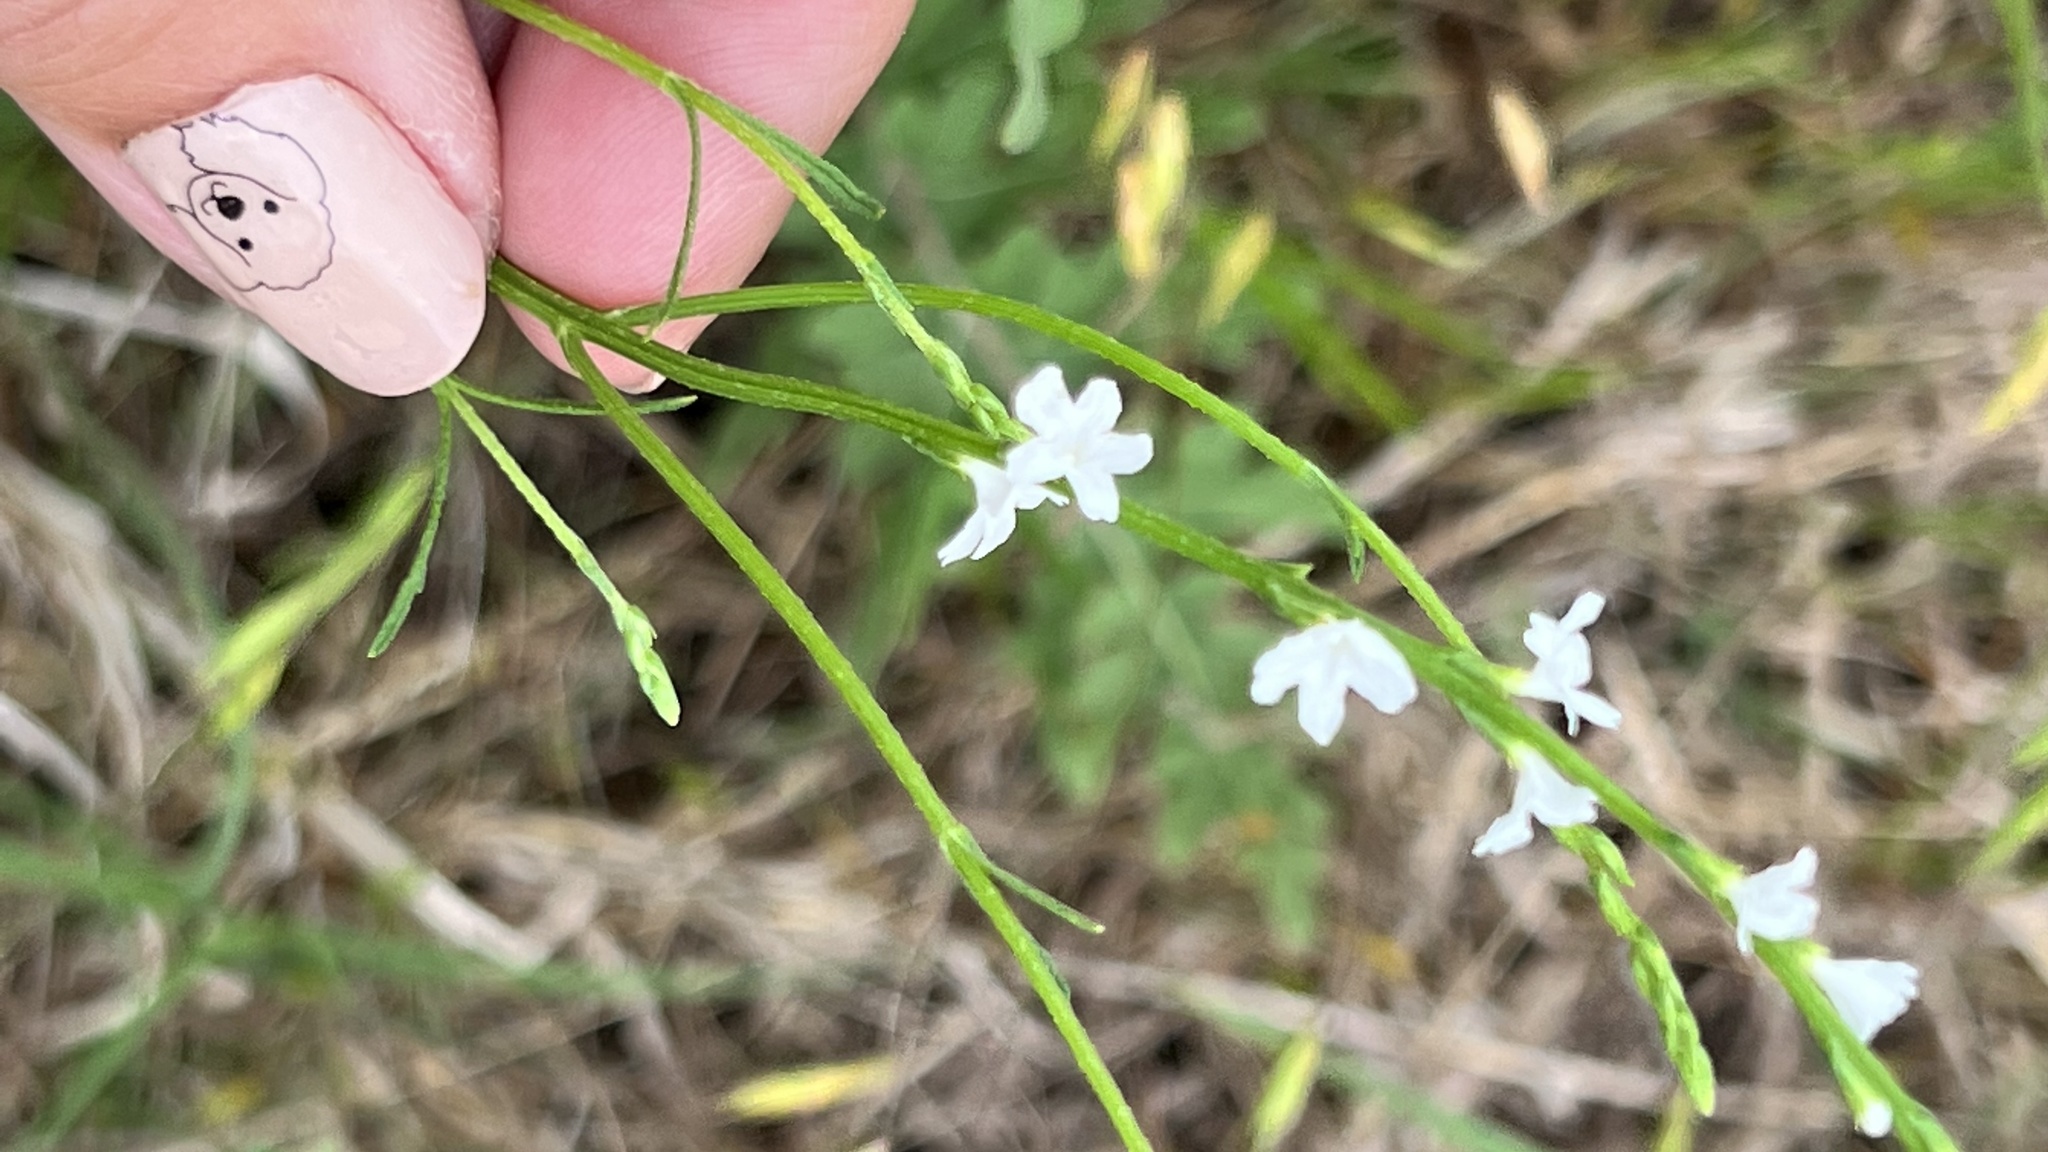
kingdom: Plantae
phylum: Tracheophyta
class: Magnoliopsida
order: Lamiales
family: Verbenaceae
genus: Verbena
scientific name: Verbena halei
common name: Texas vervain
